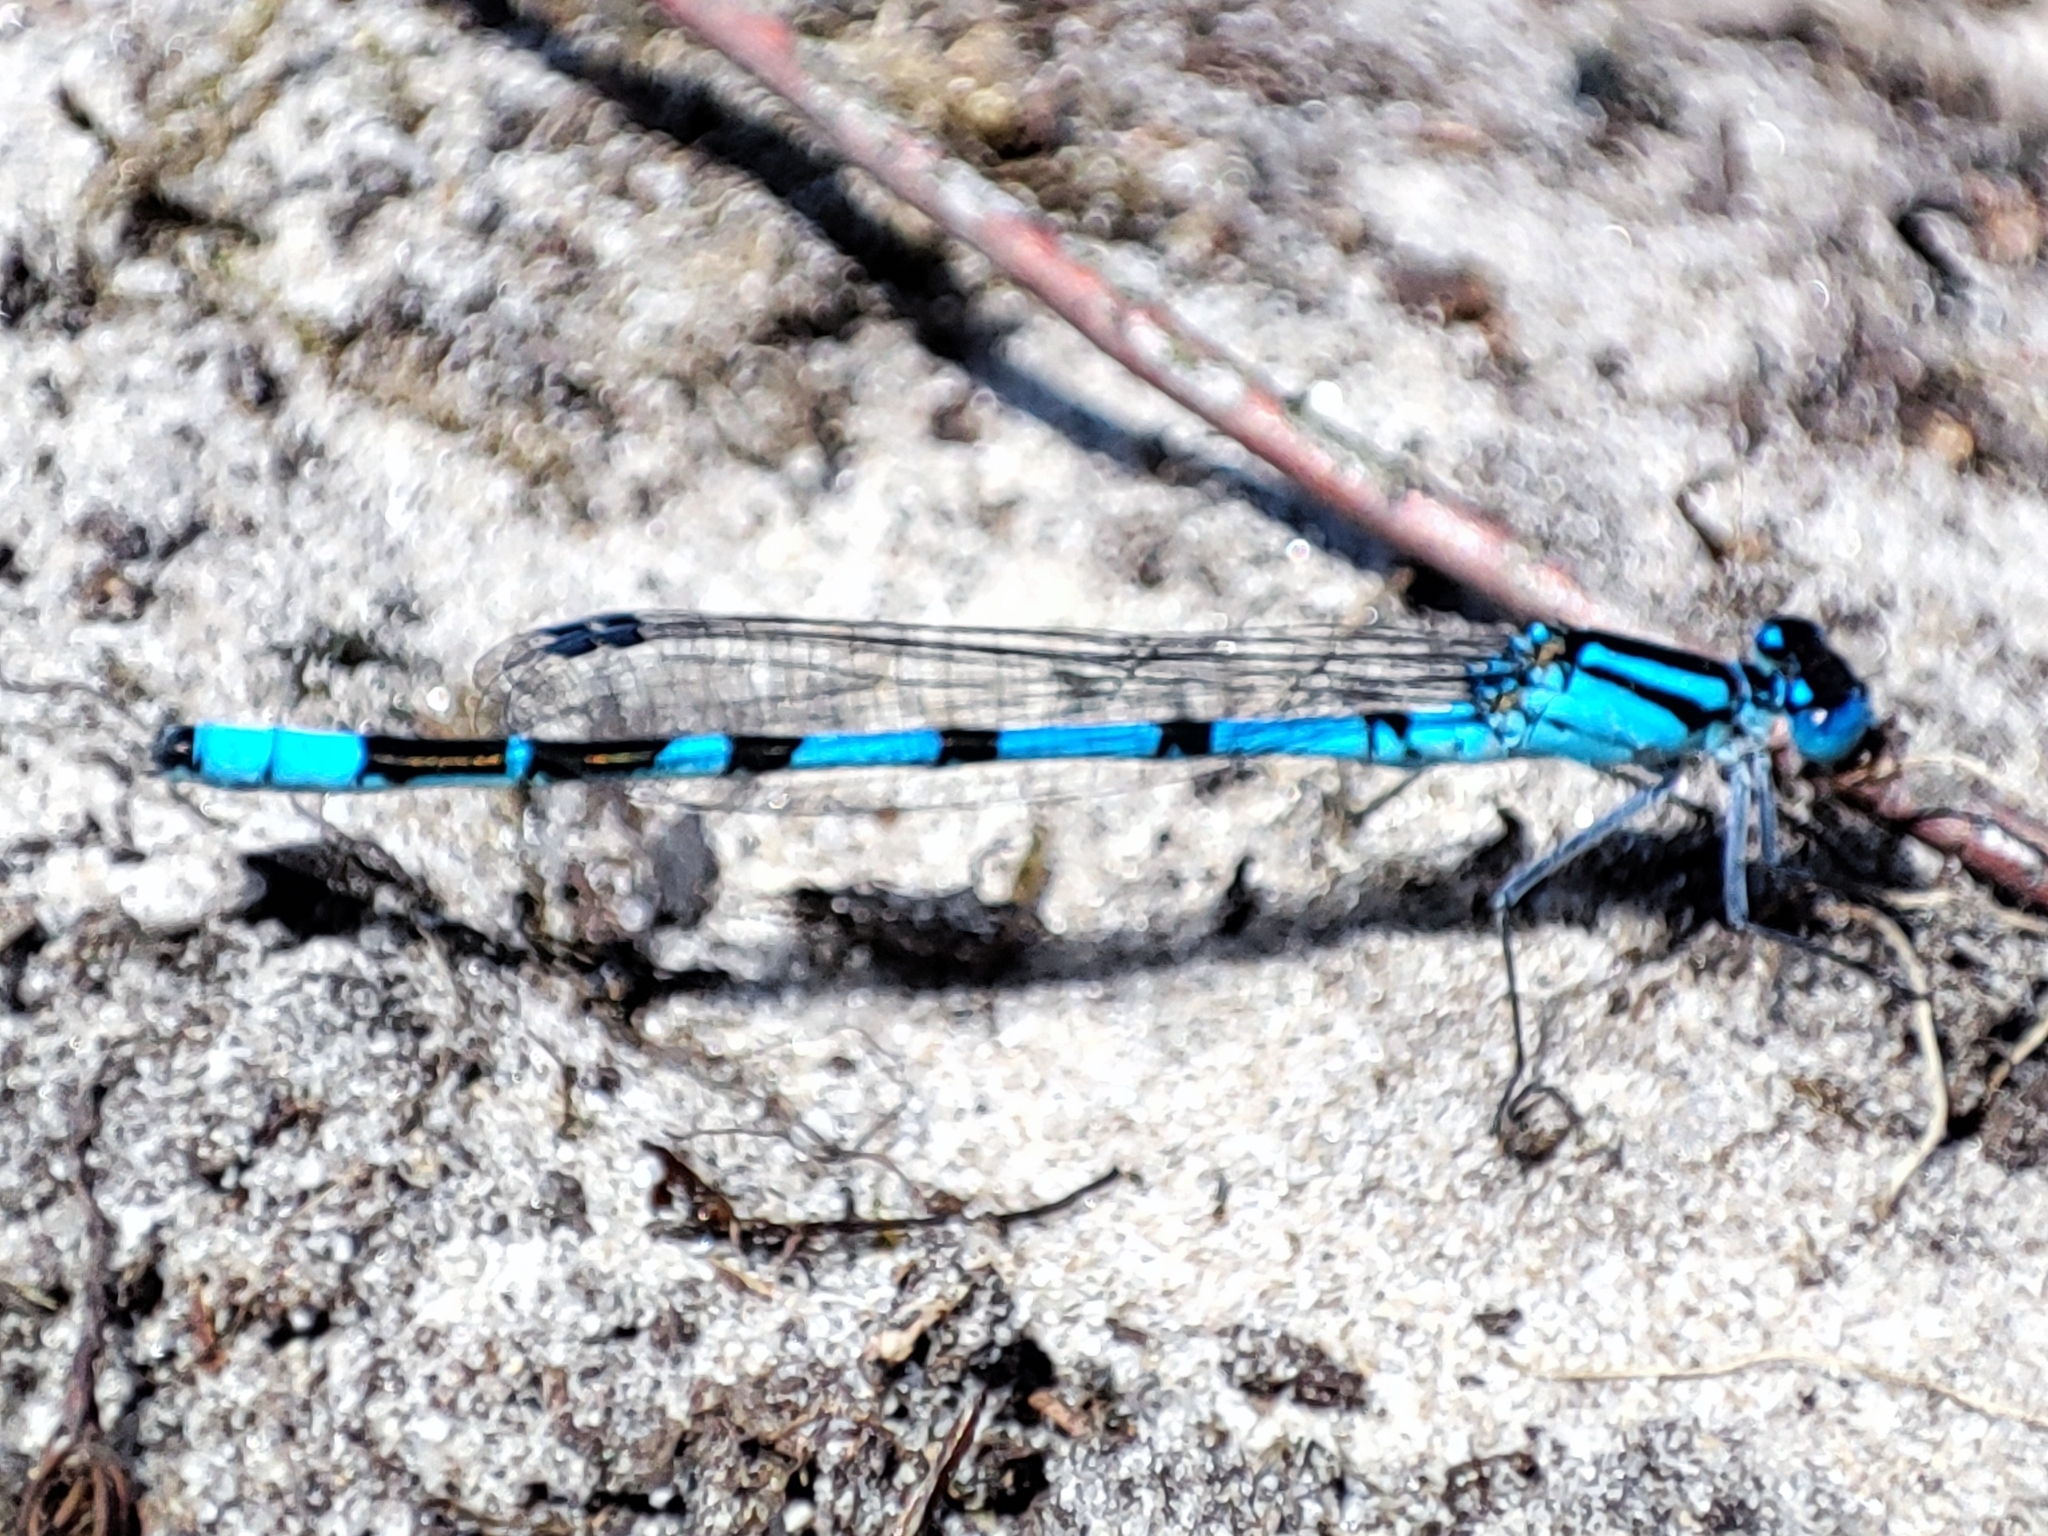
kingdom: Animalia
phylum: Arthropoda
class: Insecta
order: Odonata
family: Coenagrionidae
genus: Enallagma
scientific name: Enallagma cyathigerum
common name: Common blue damselfly
